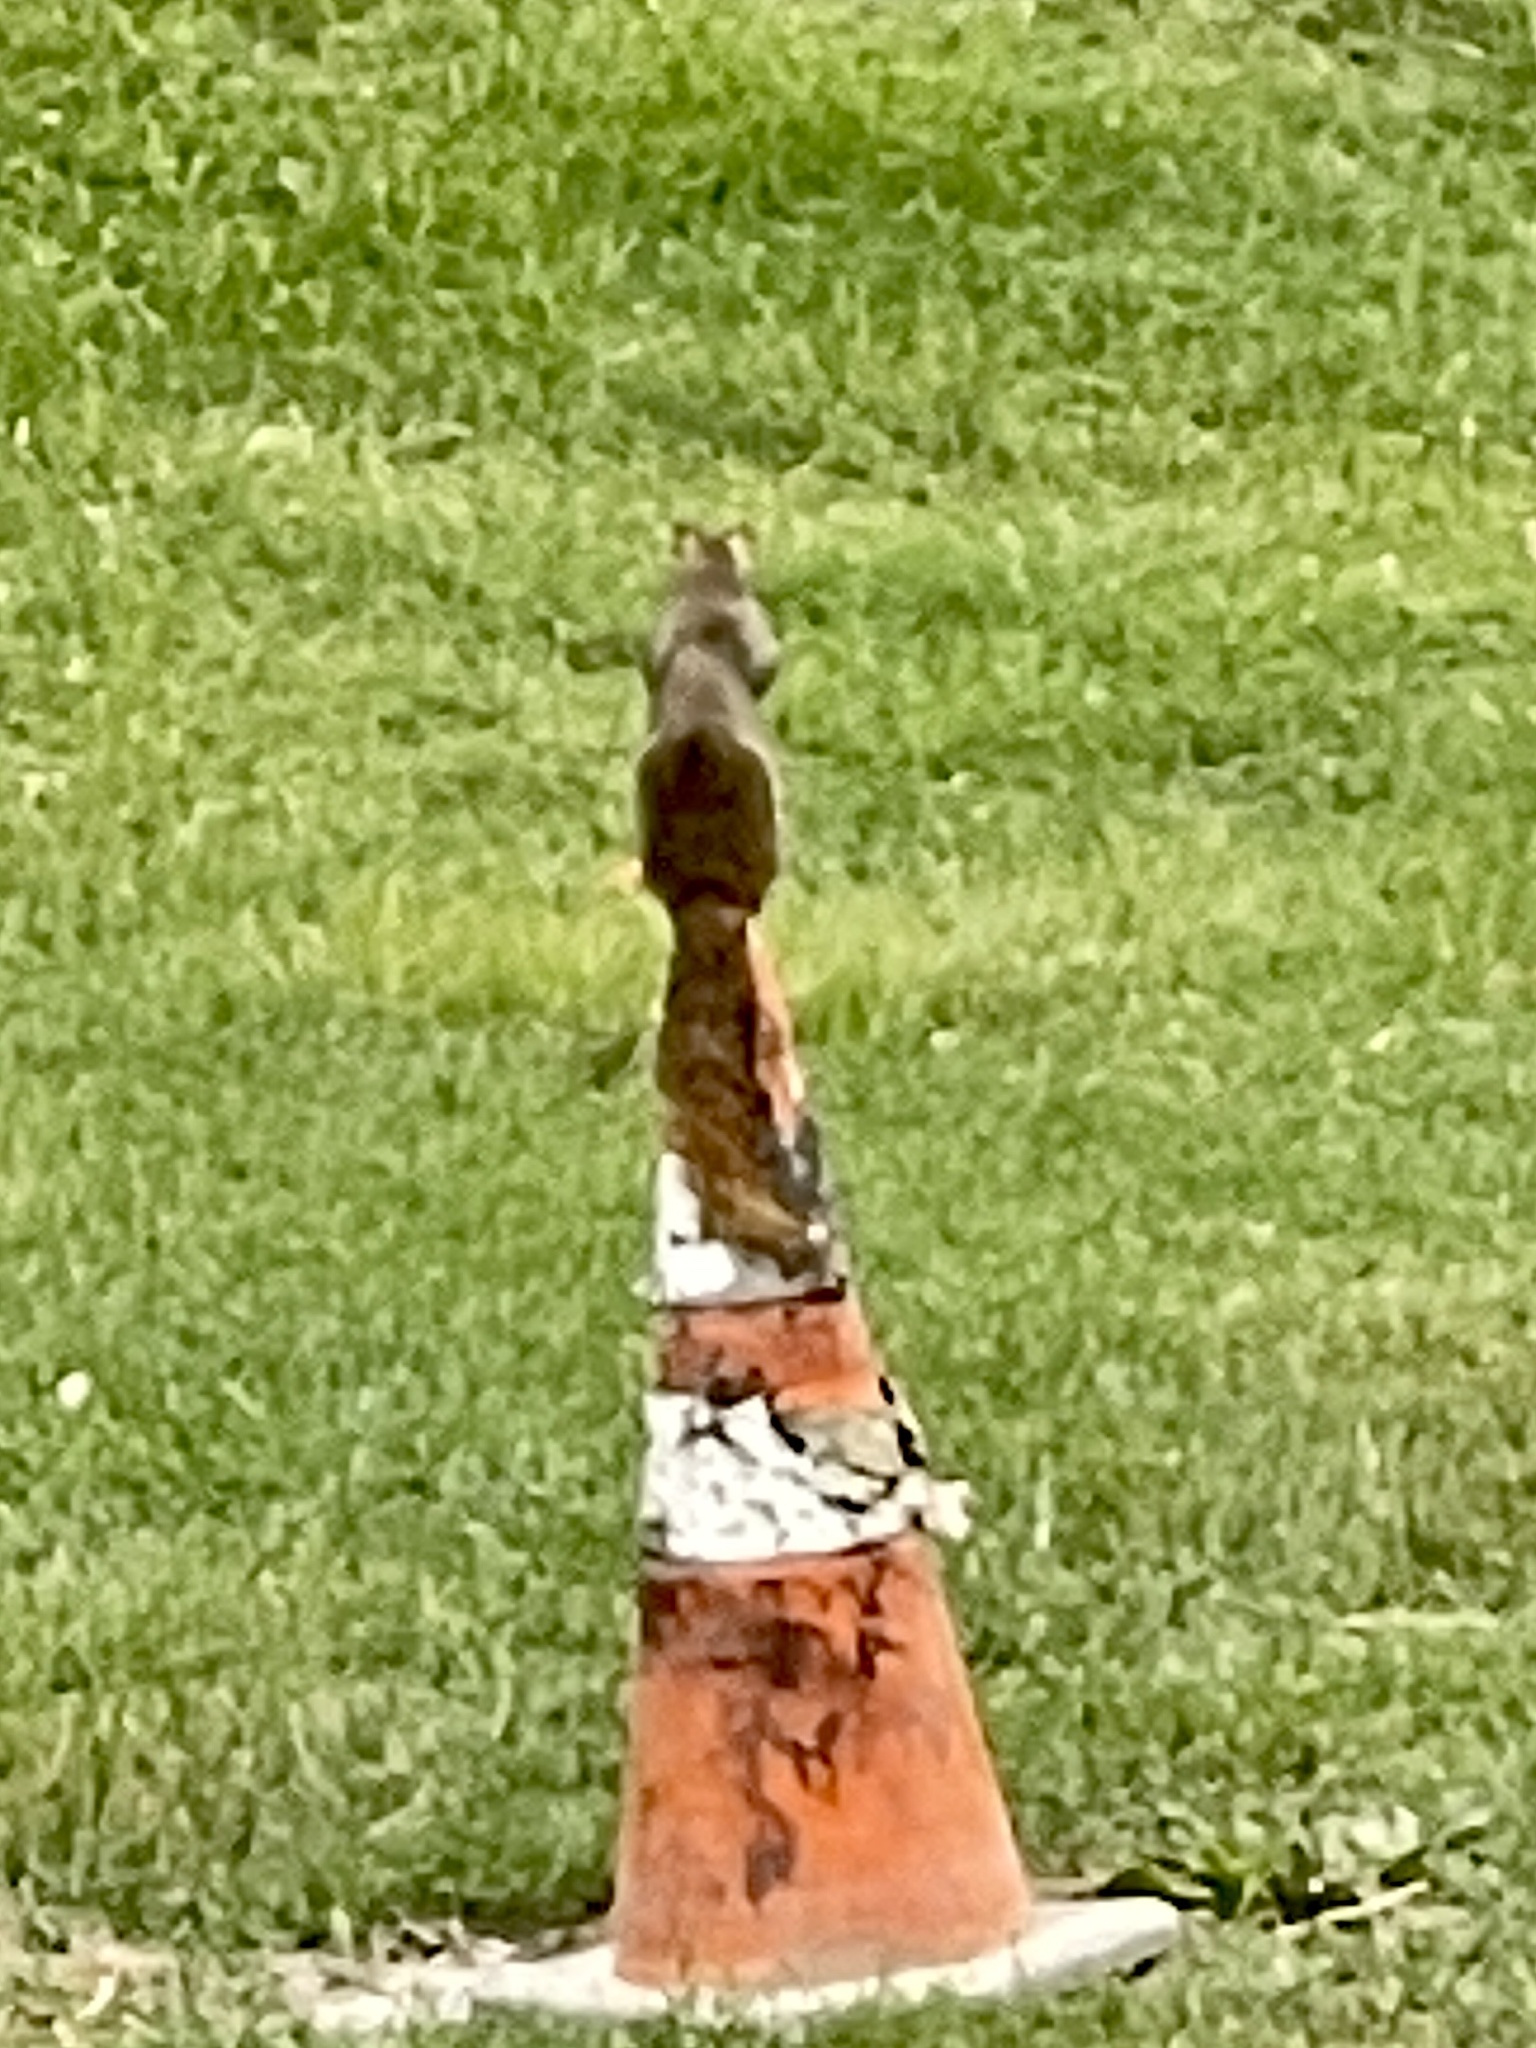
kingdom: Animalia
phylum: Chordata
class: Mammalia
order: Rodentia
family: Sciuridae
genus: Sciurus
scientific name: Sciurus niger
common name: Fox squirrel
